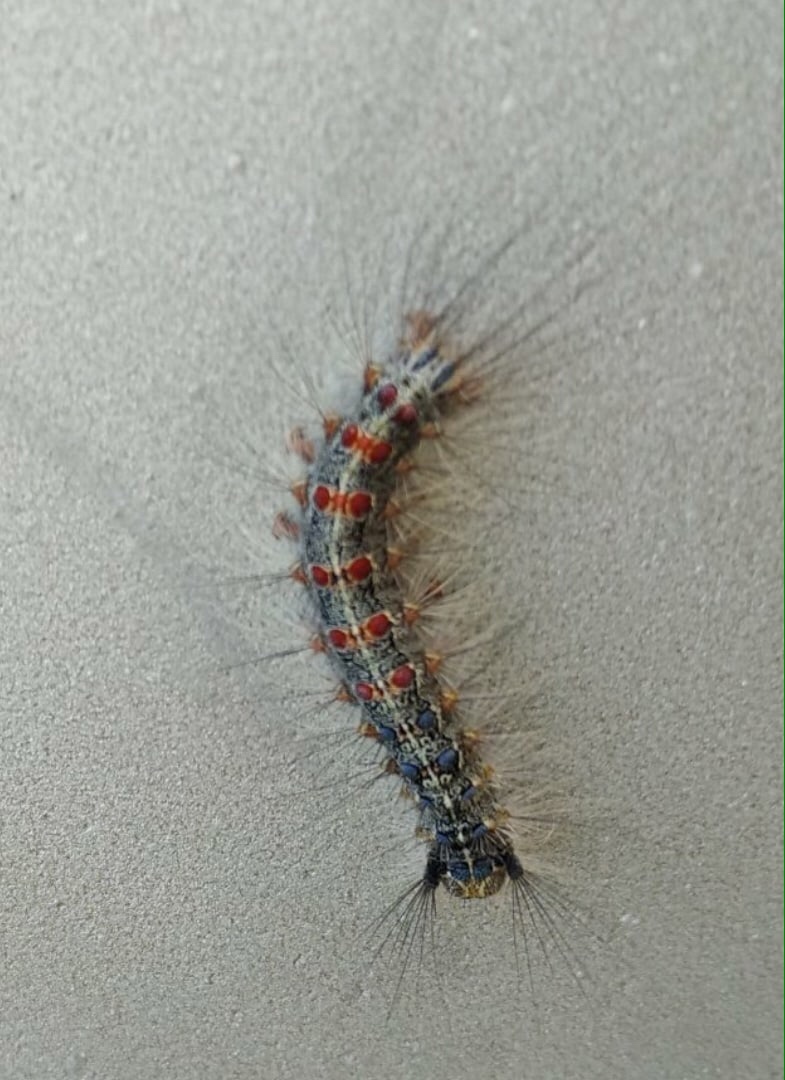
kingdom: Animalia
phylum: Arthropoda
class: Insecta
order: Lepidoptera
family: Erebidae
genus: Lymantria
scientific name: Lymantria dispar
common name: Gypsy moth
